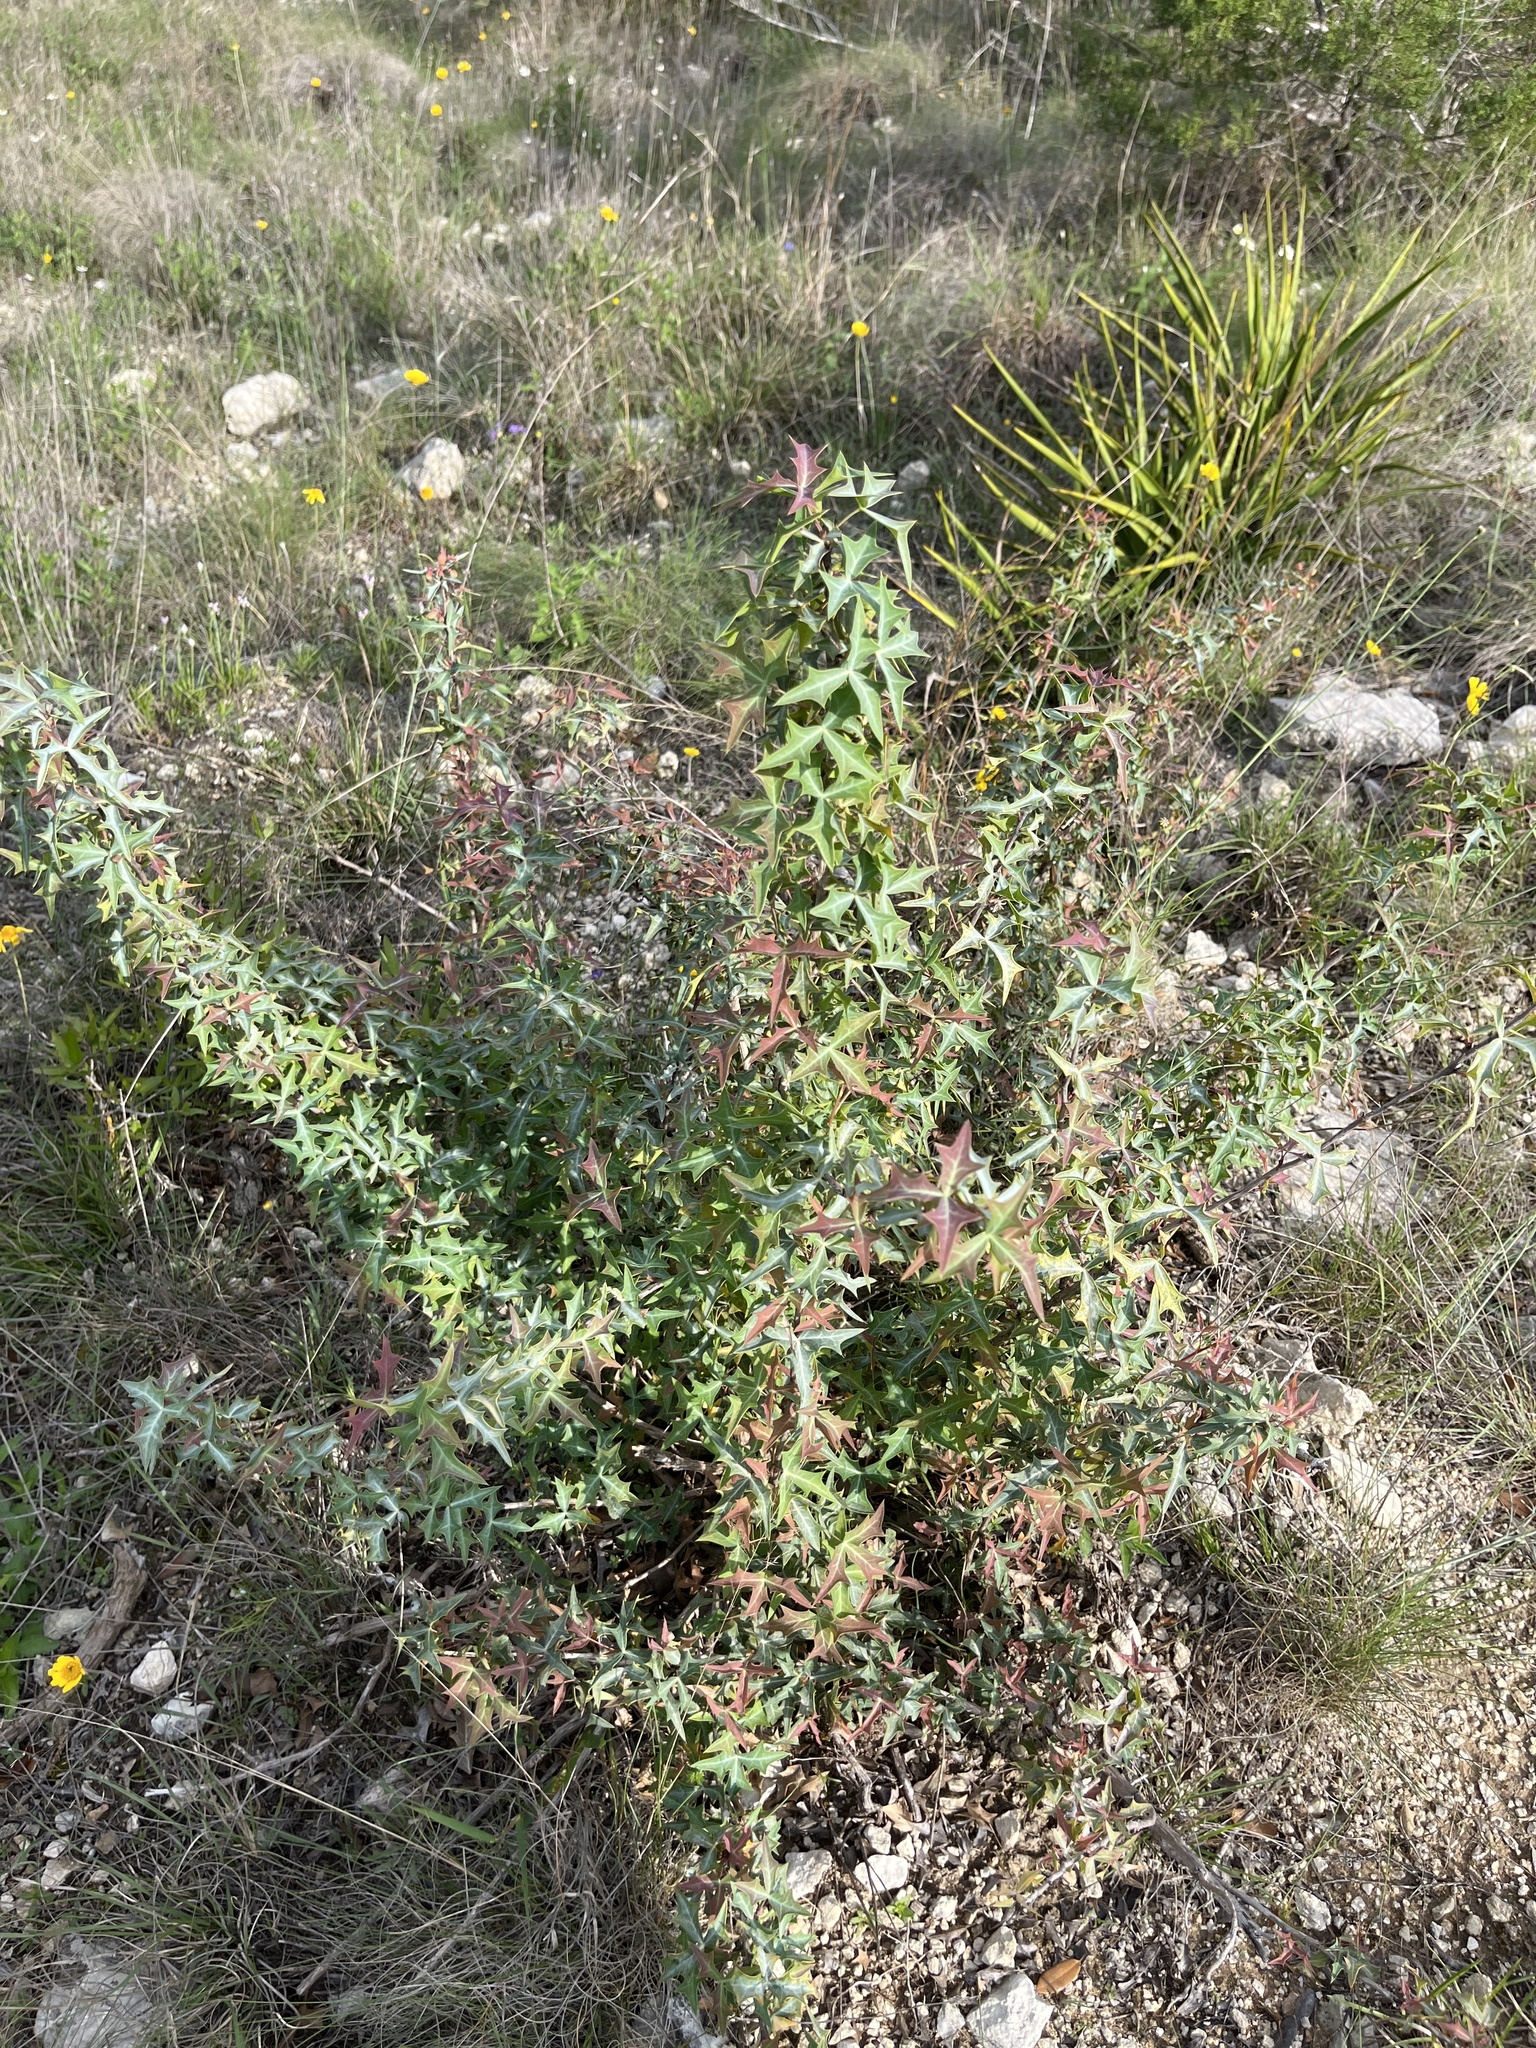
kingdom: Plantae
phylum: Tracheophyta
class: Magnoliopsida
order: Ranunculales
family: Berberidaceae
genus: Alloberberis
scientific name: Alloberberis trifoliolata
